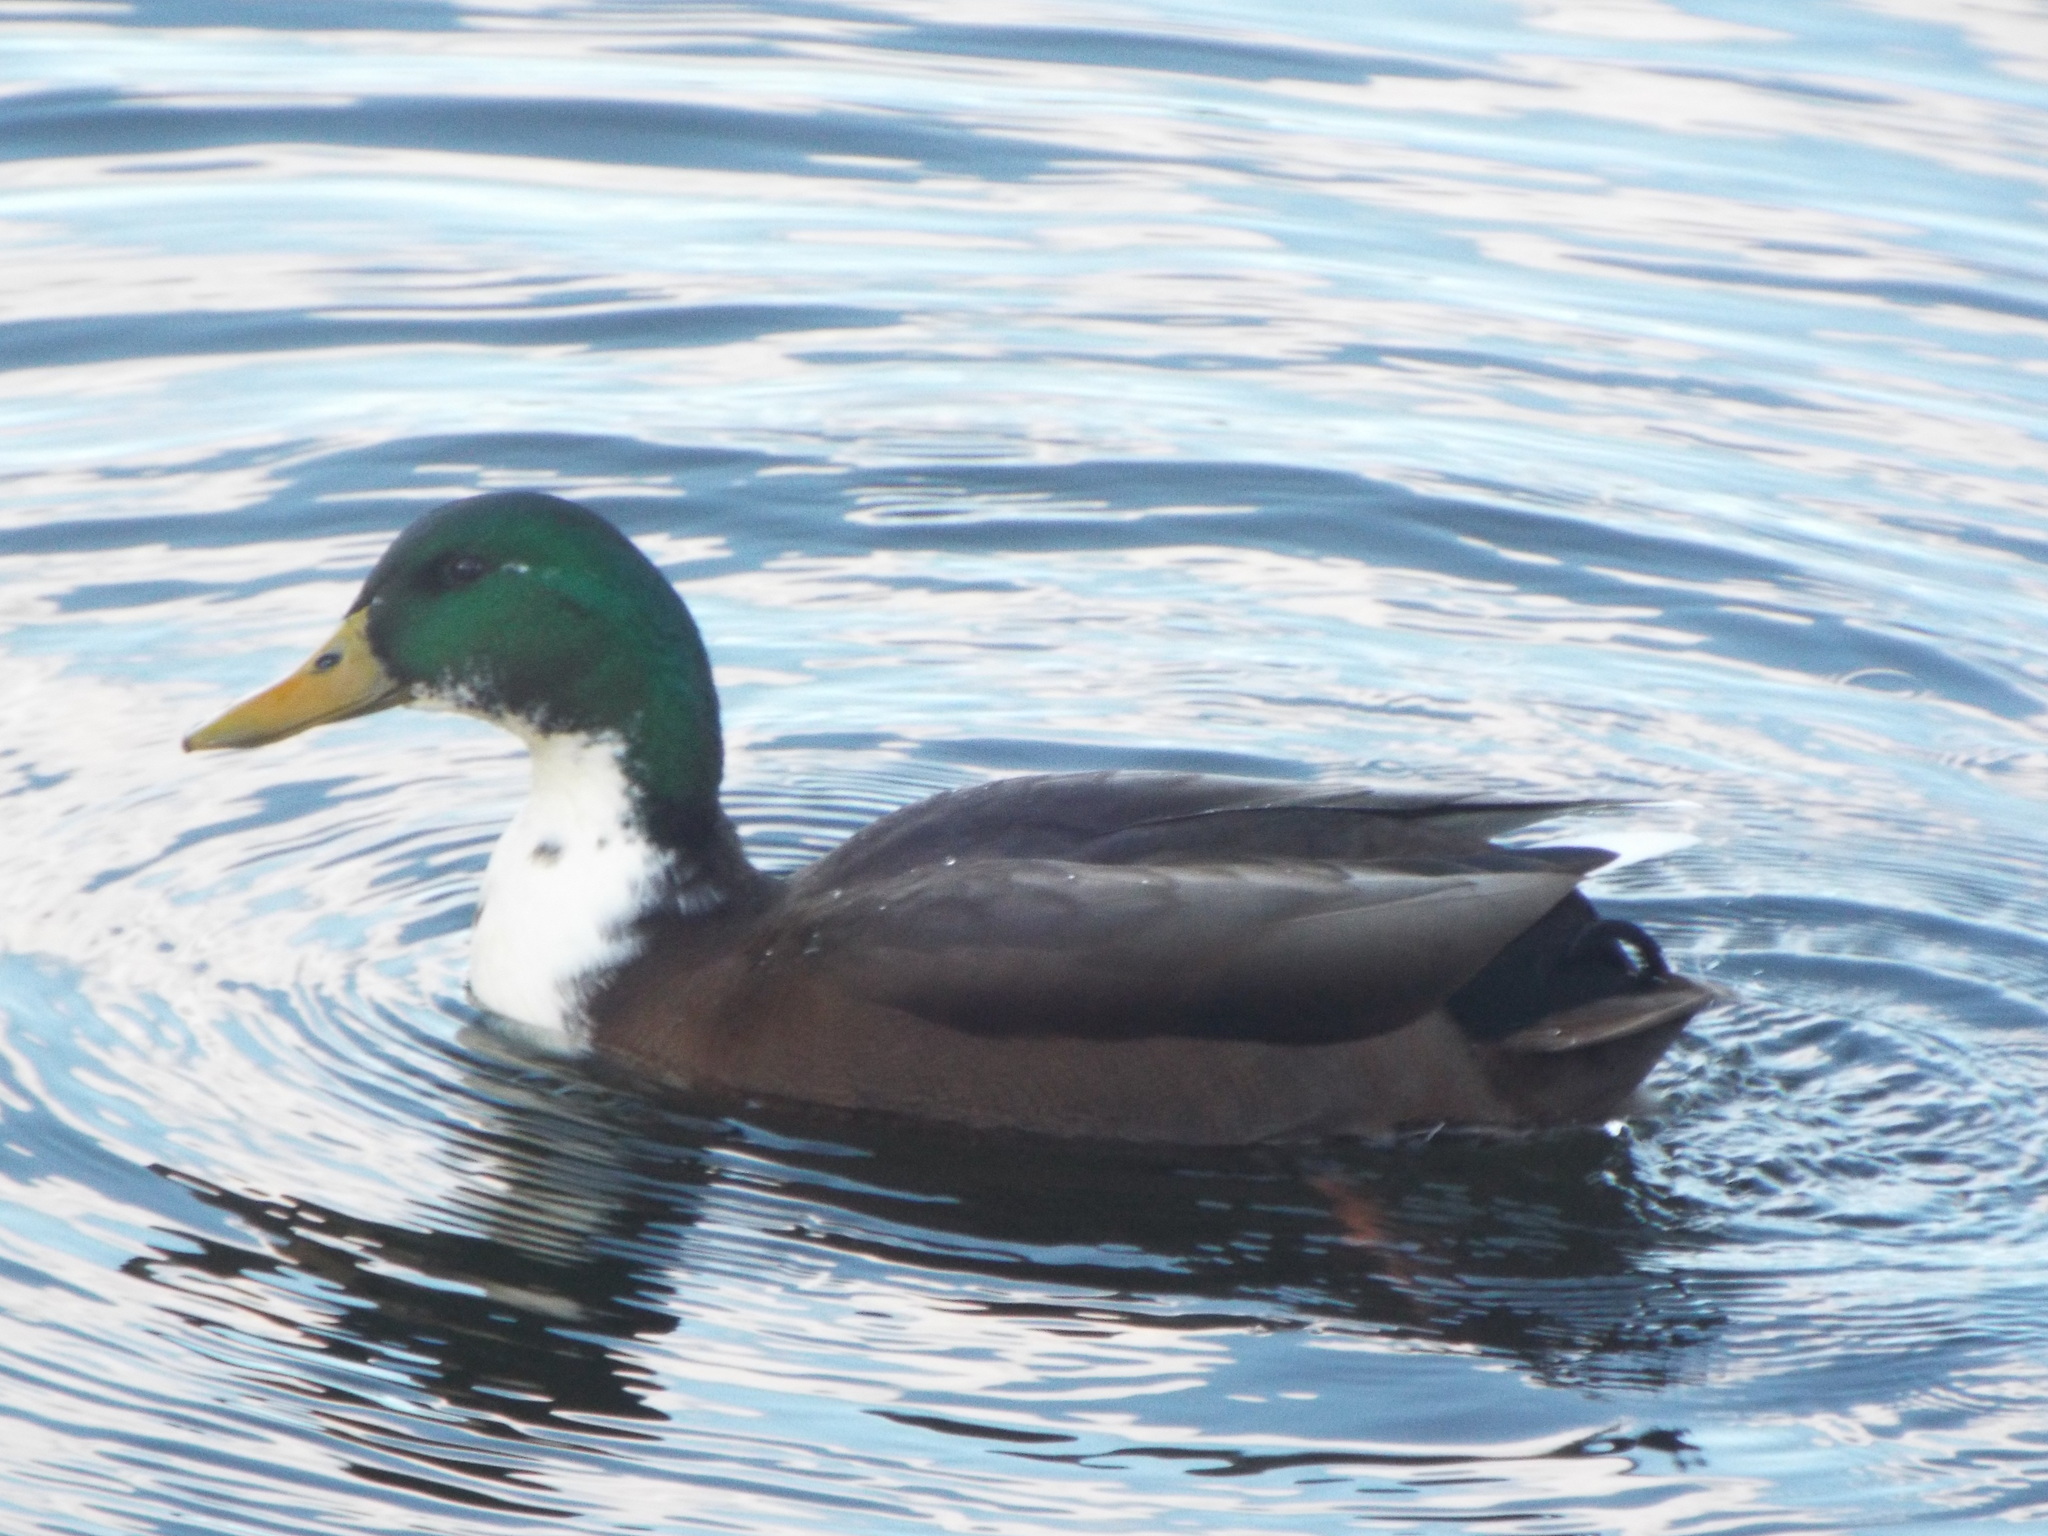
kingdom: Animalia
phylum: Chordata
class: Aves
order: Anseriformes
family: Anatidae
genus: Anas
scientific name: Anas platyrhynchos
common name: Mallard
